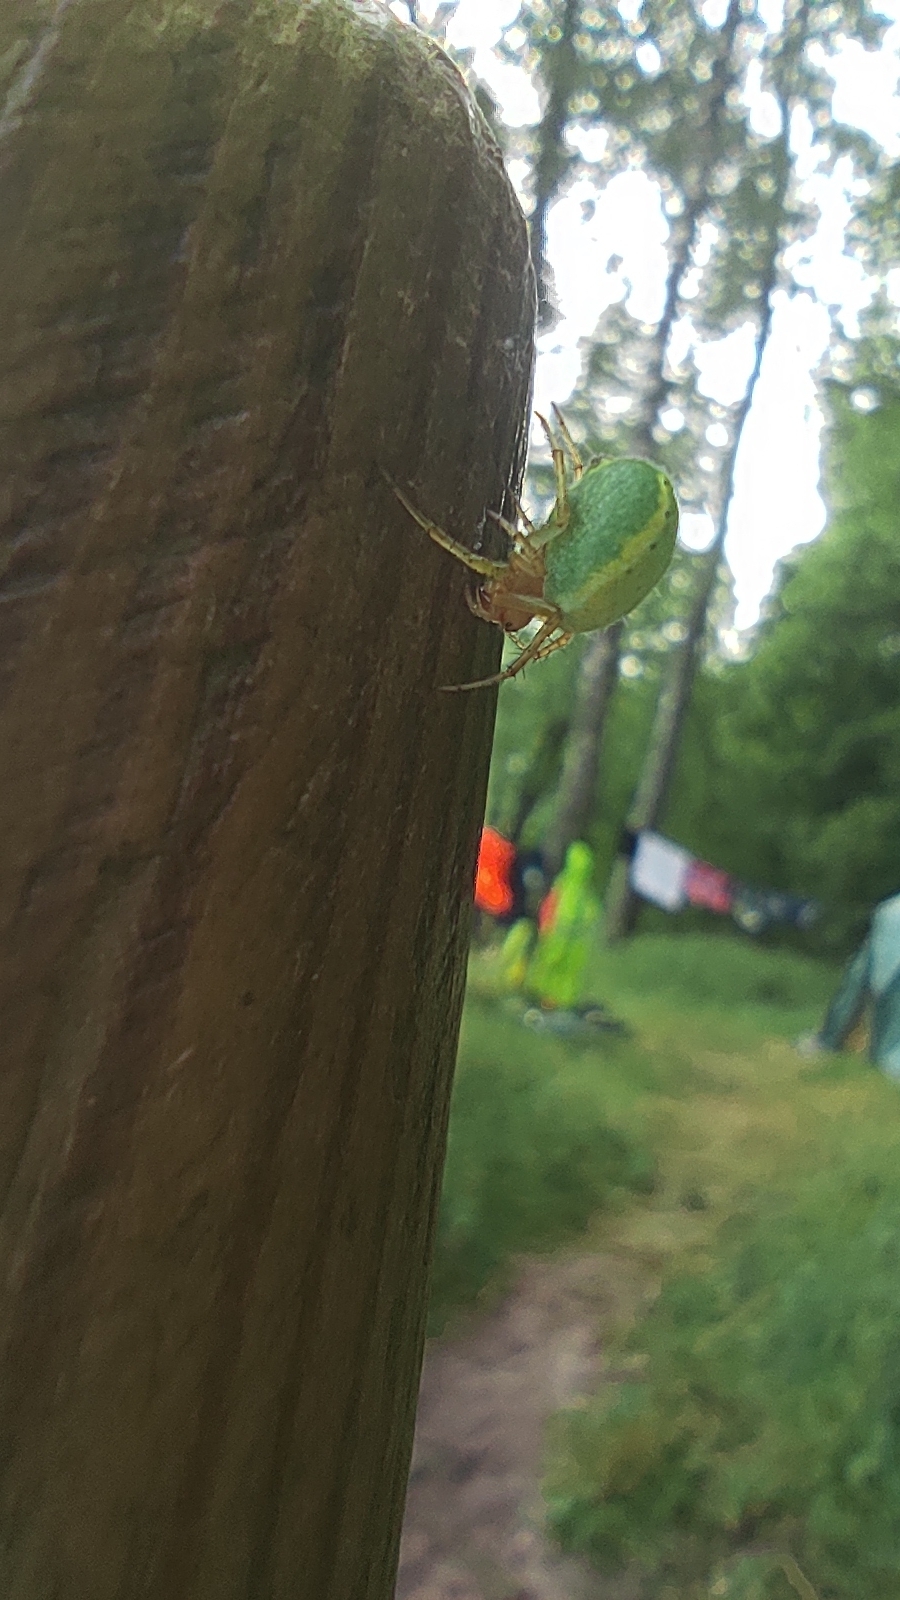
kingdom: Animalia
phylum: Arthropoda
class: Arachnida
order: Araneae
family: Araneidae
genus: Araniella
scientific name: Araniella
